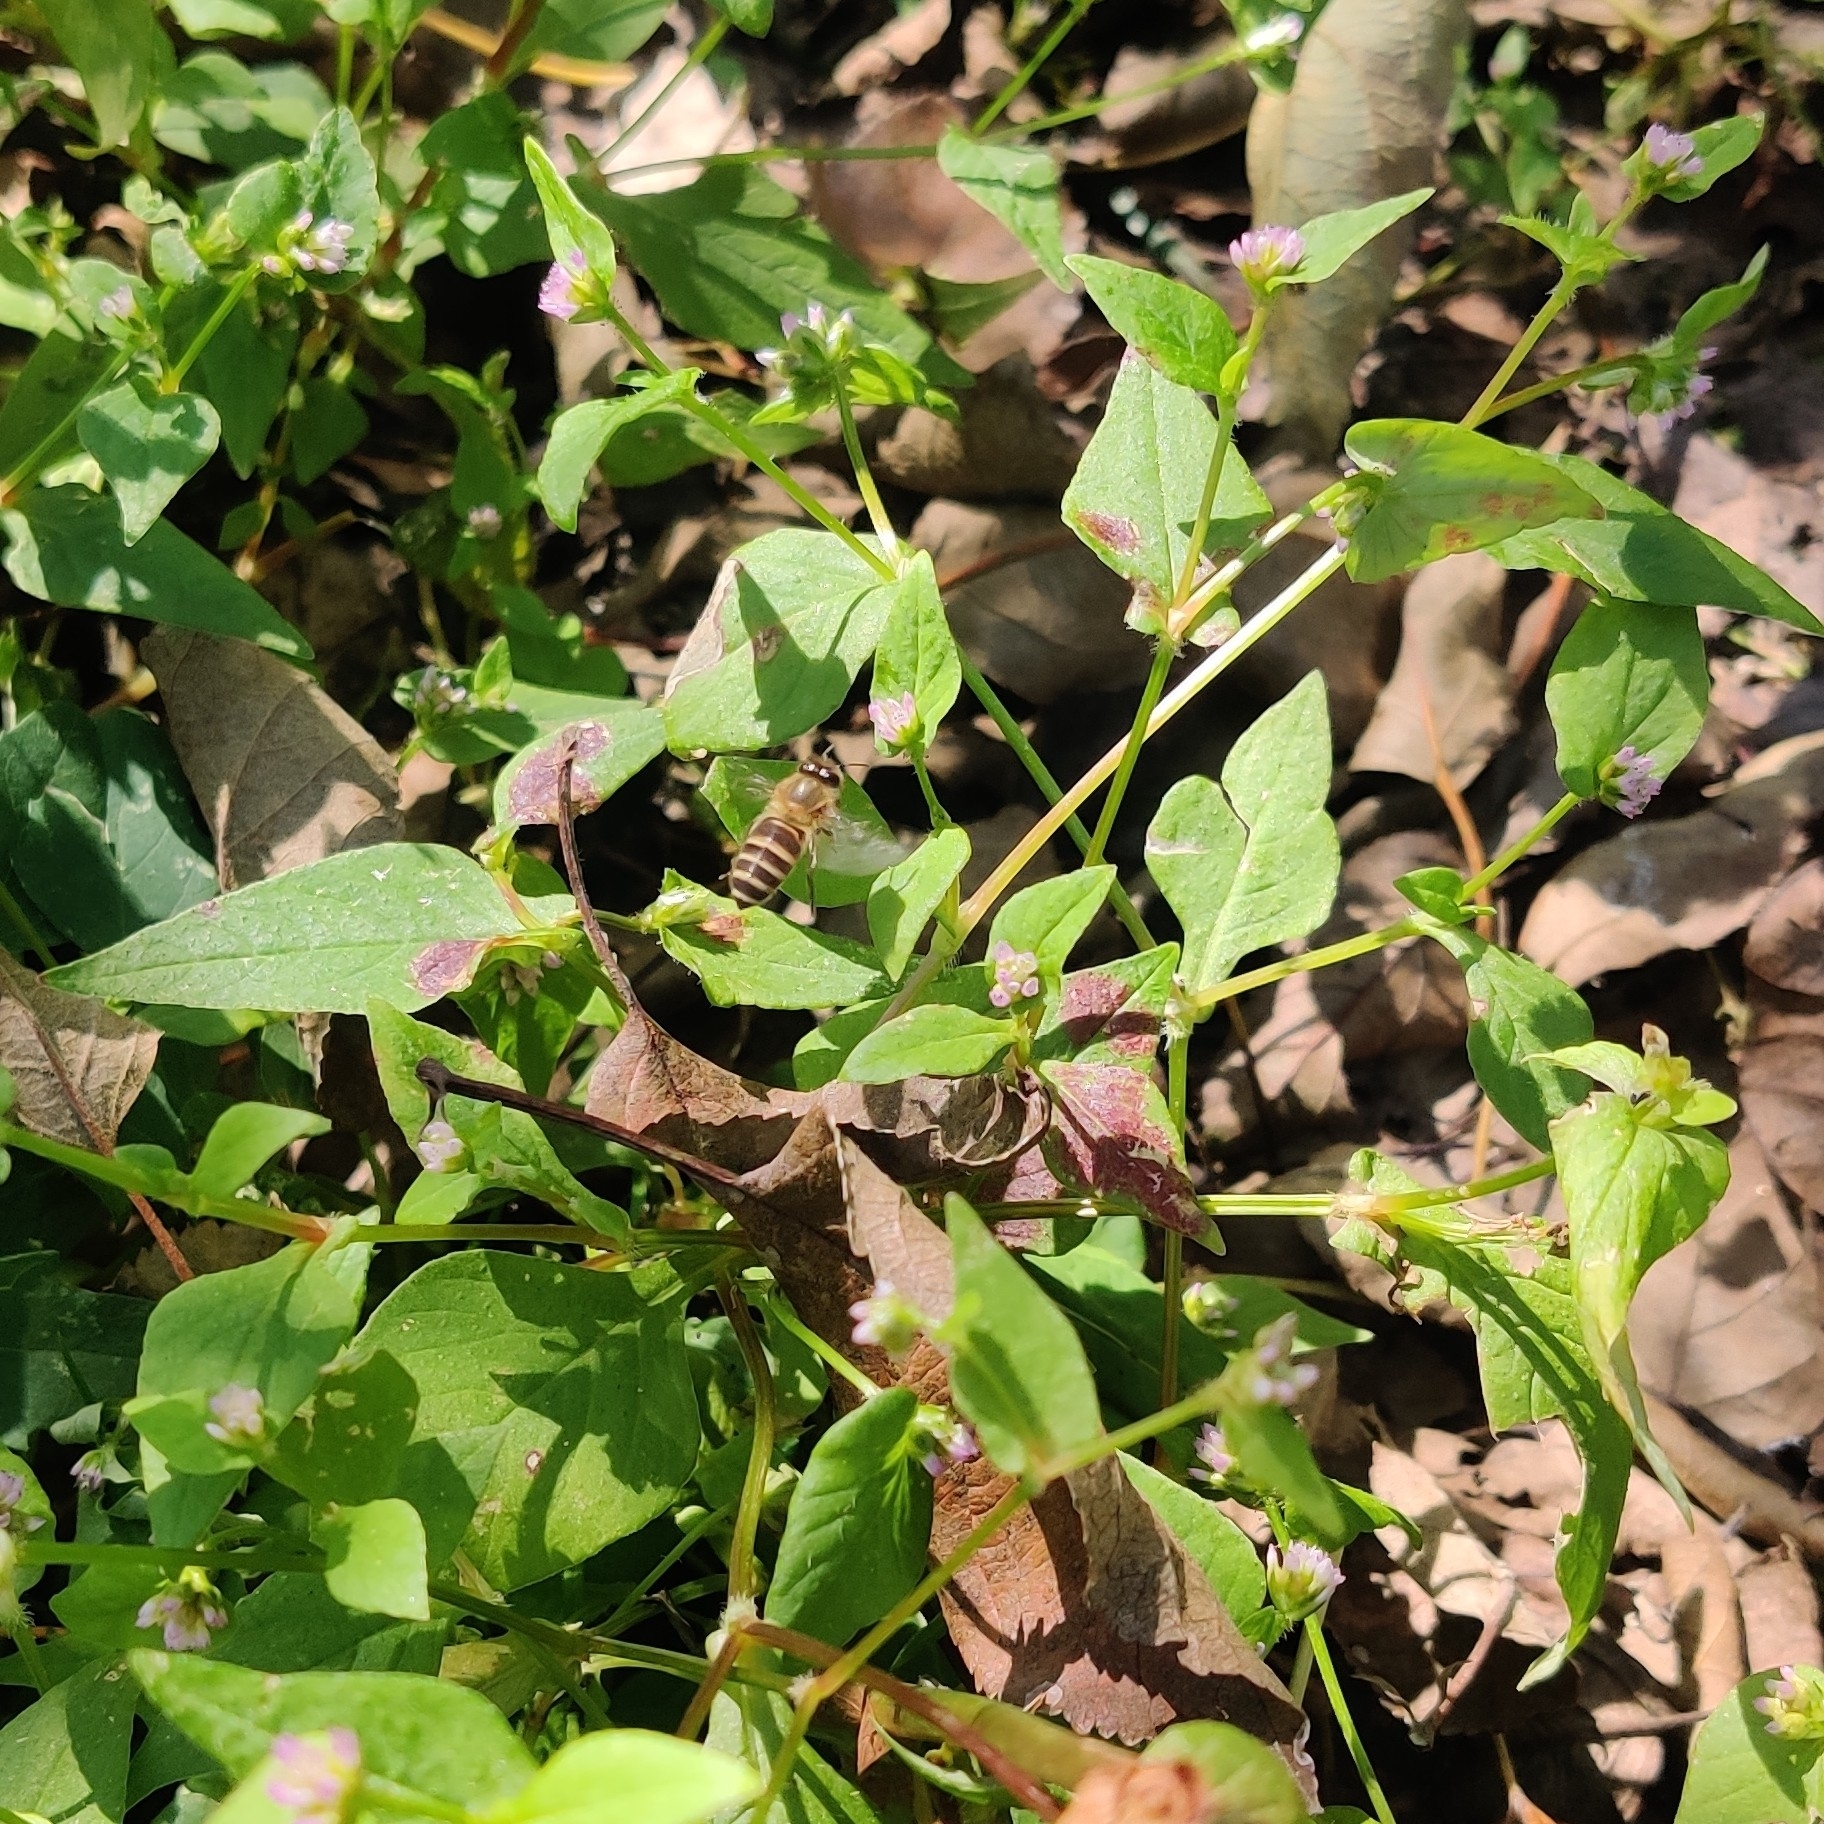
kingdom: Animalia
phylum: Arthropoda
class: Insecta
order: Hymenoptera
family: Apidae
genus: Apis
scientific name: Apis cerana
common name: Honey bee
